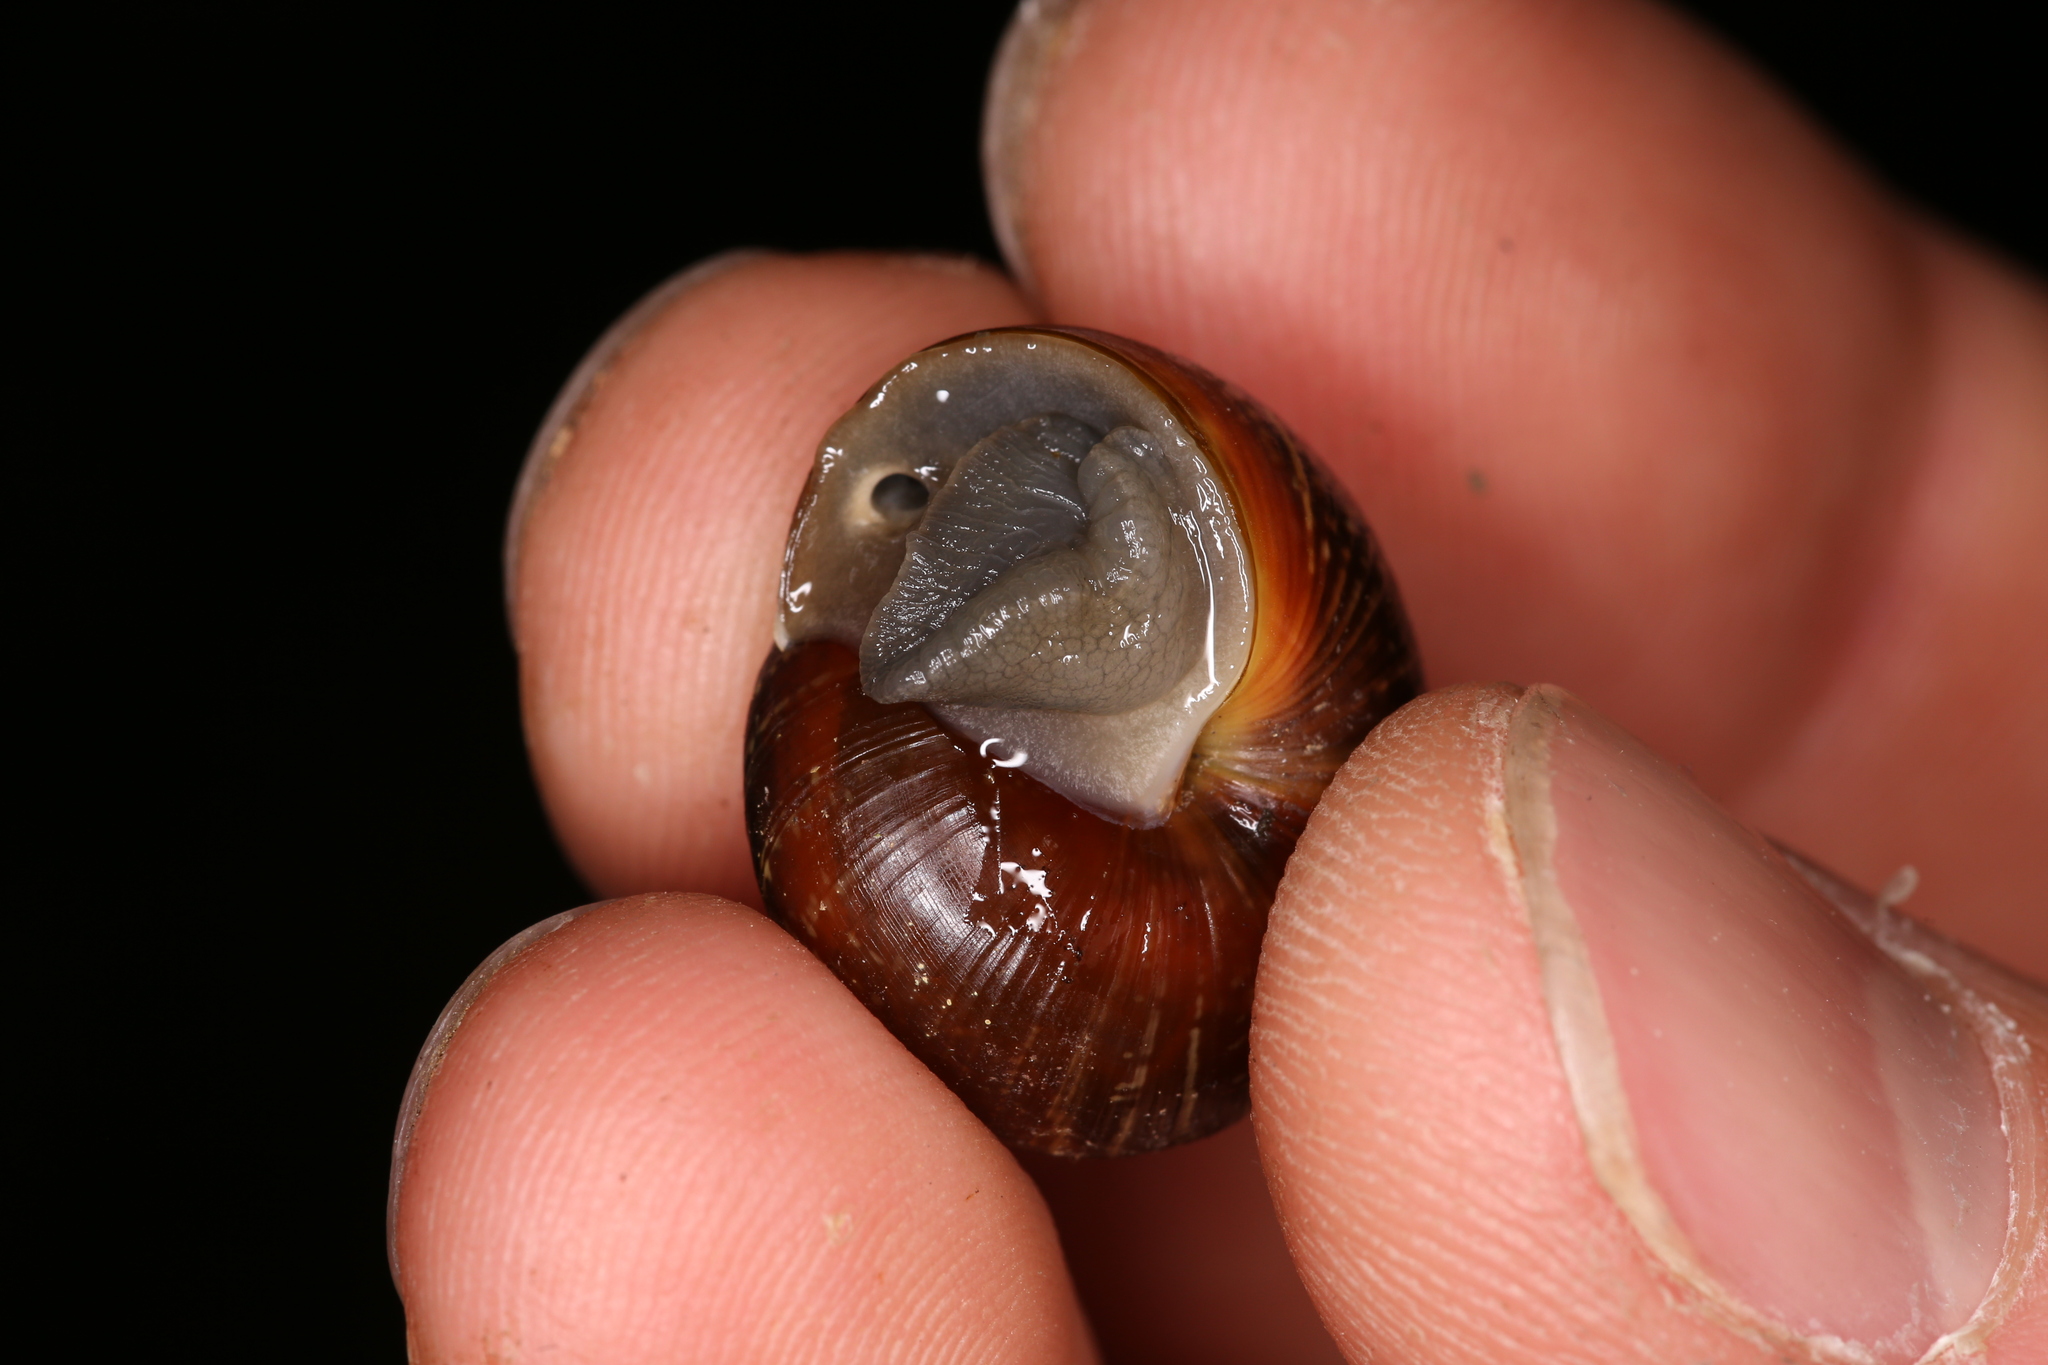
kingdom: Animalia
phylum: Mollusca
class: Gastropoda
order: Stylommatophora
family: Helicidae
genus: Arianta
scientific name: Arianta arbustorum
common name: Copse snail
